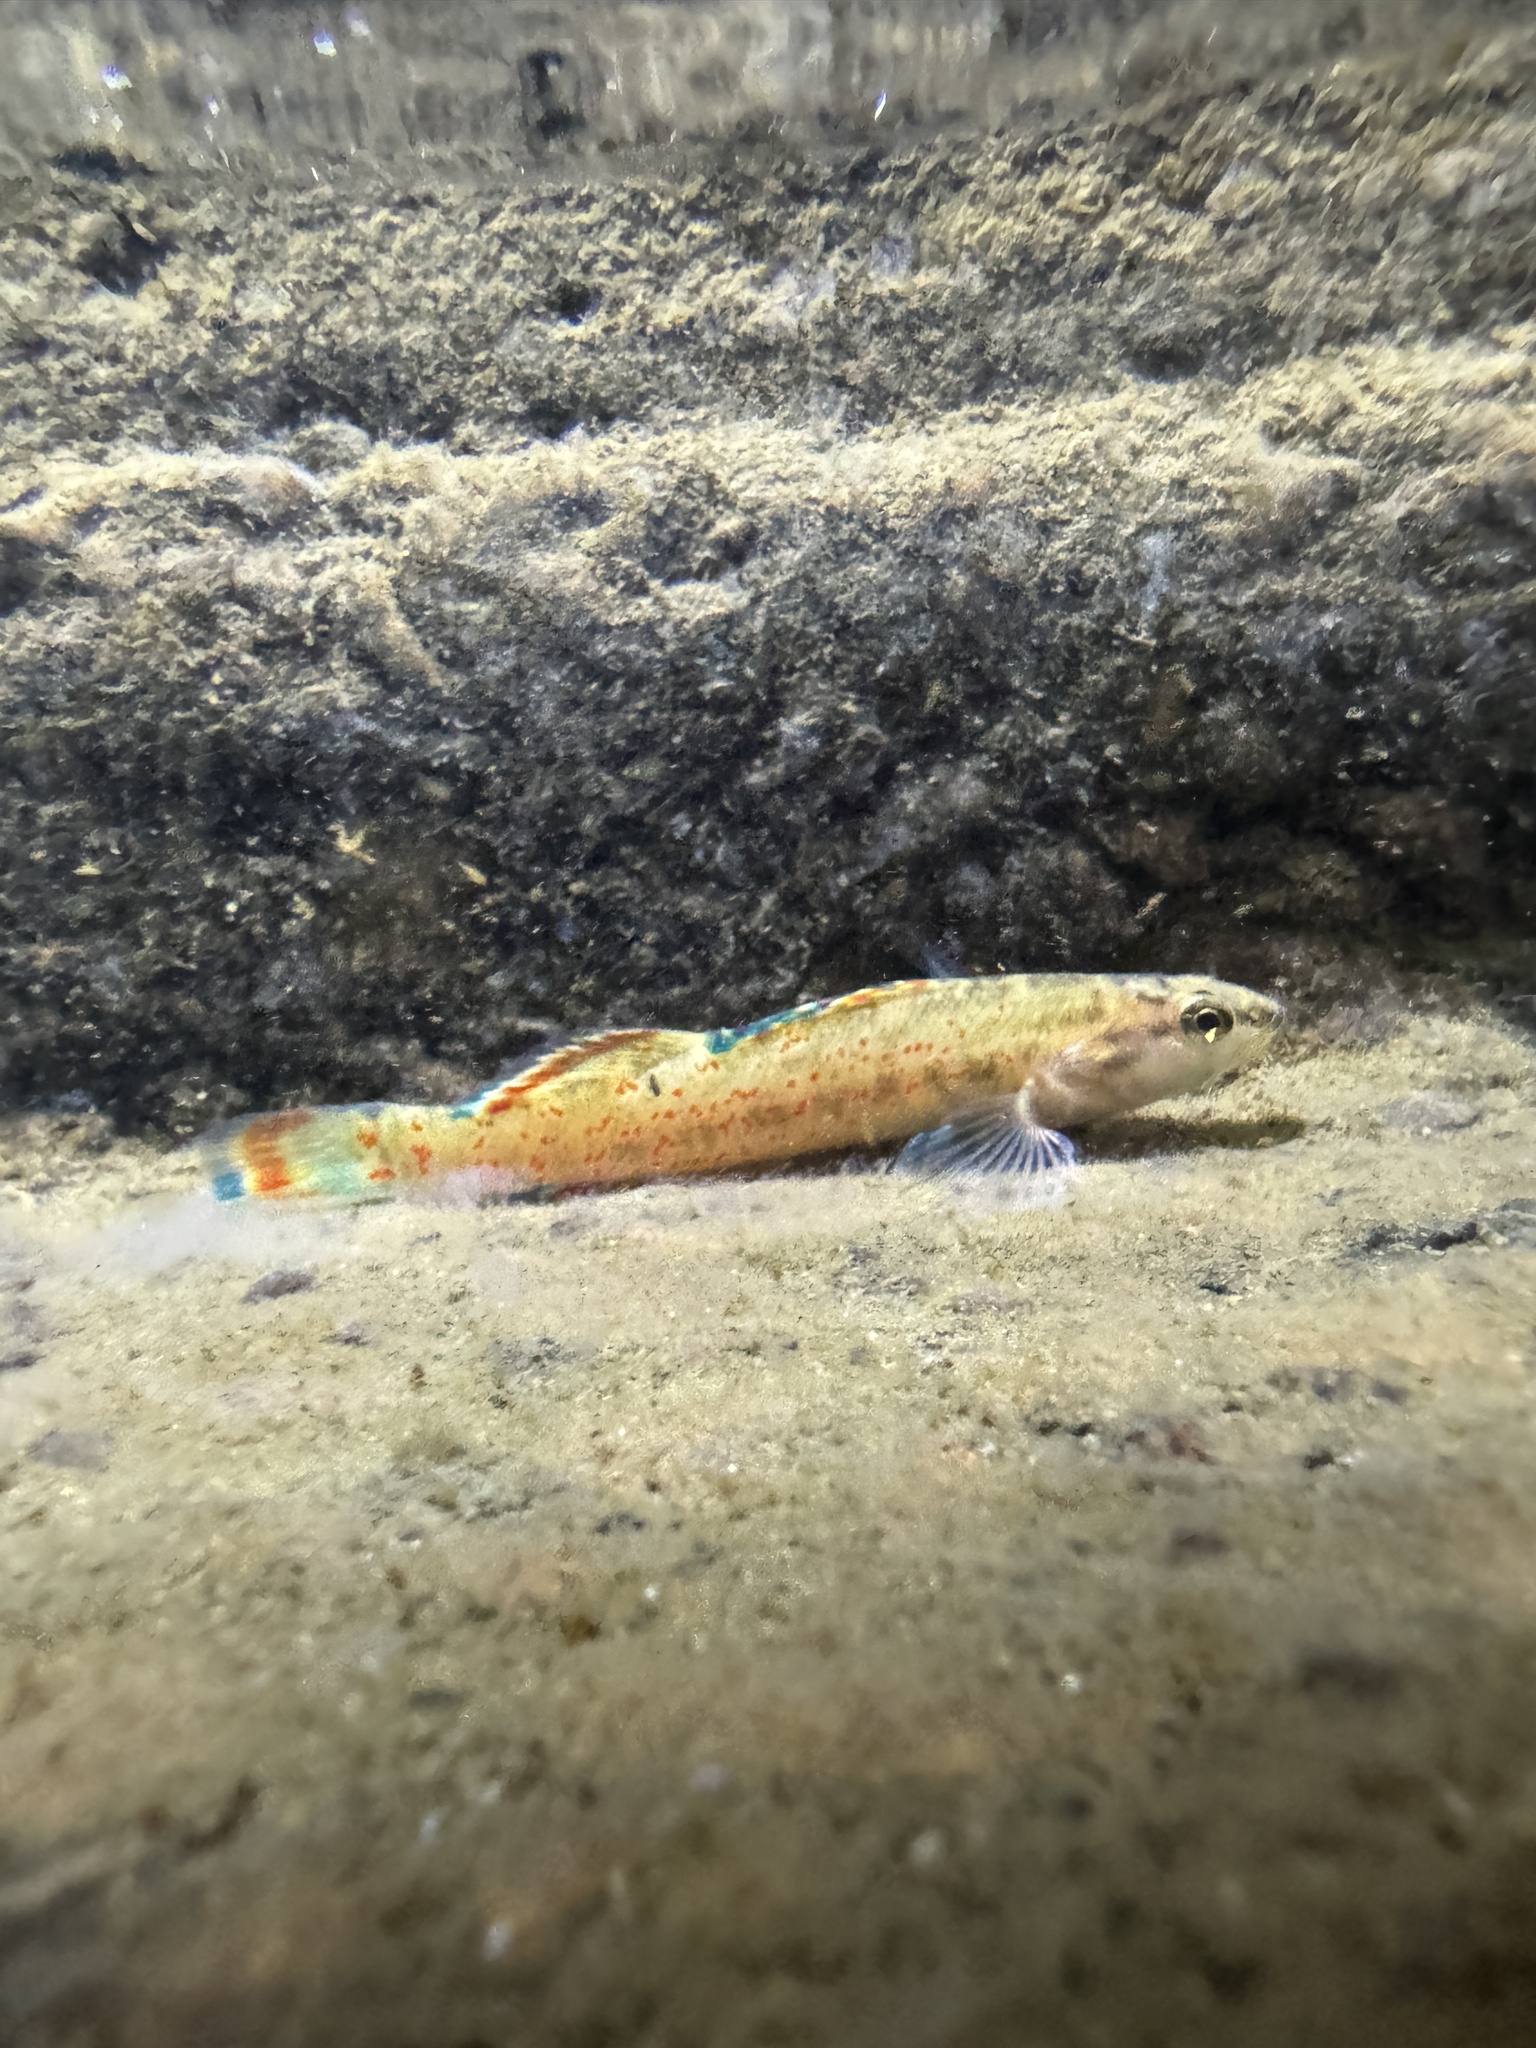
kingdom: Animalia
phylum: Chordata
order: Perciformes
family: Percidae
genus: Etheostoma
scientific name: Etheostoma artesiae
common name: Redspot darter
